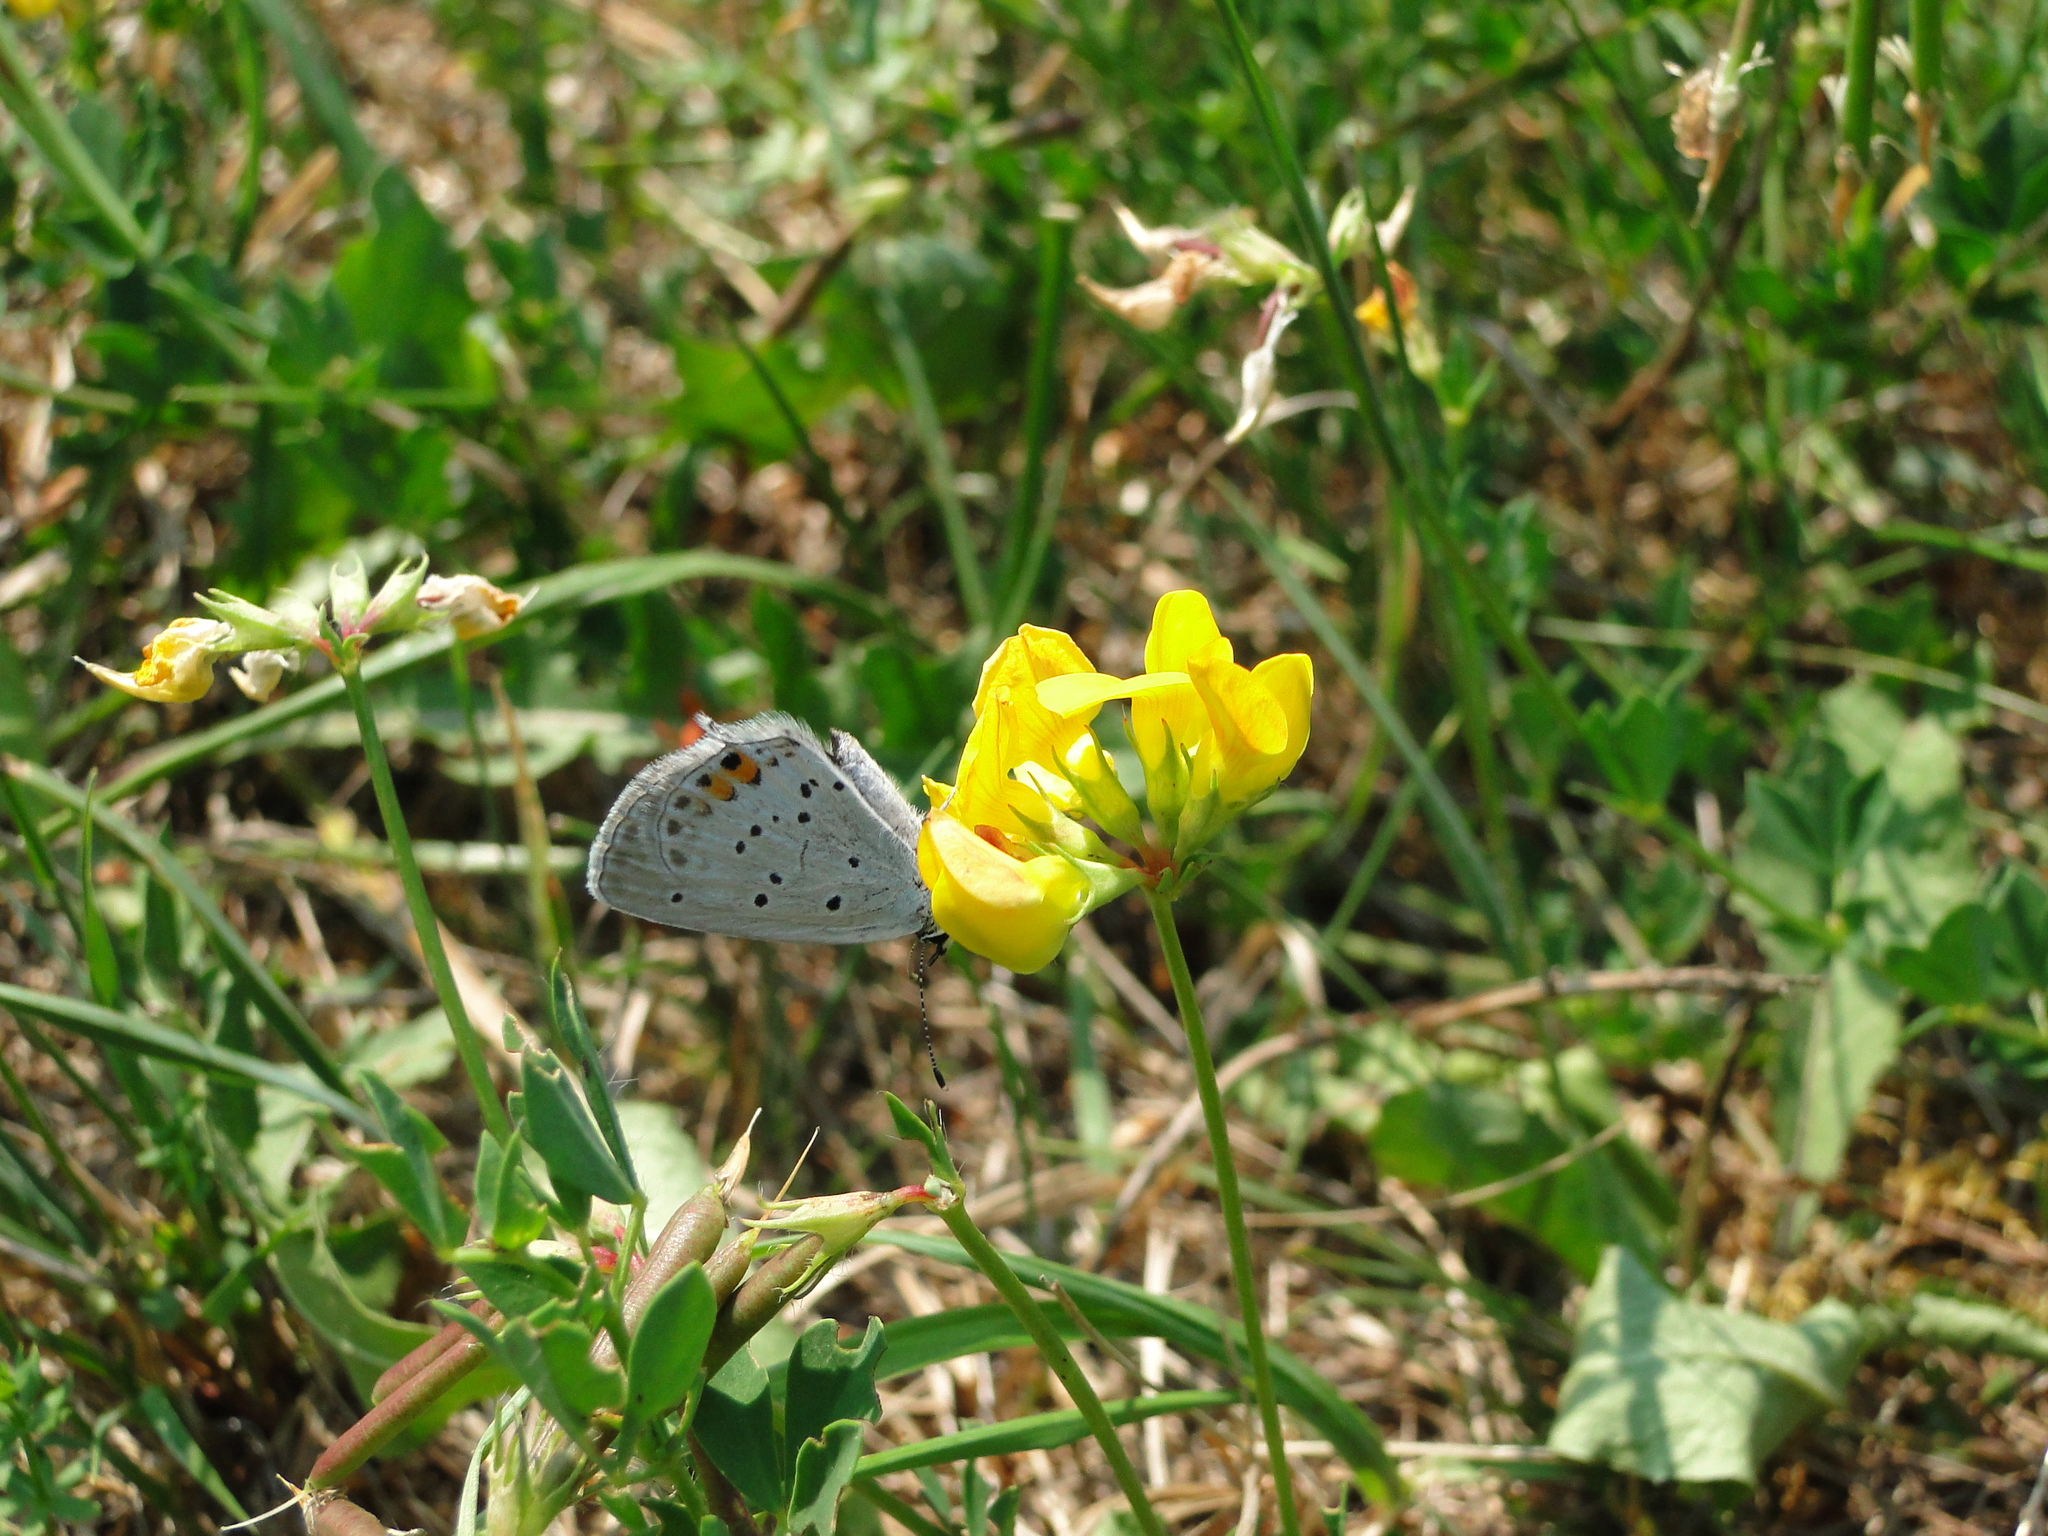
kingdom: Animalia
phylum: Arthropoda
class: Insecta
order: Lepidoptera
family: Lycaenidae
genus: Elkalyce
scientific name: Elkalyce argiades
